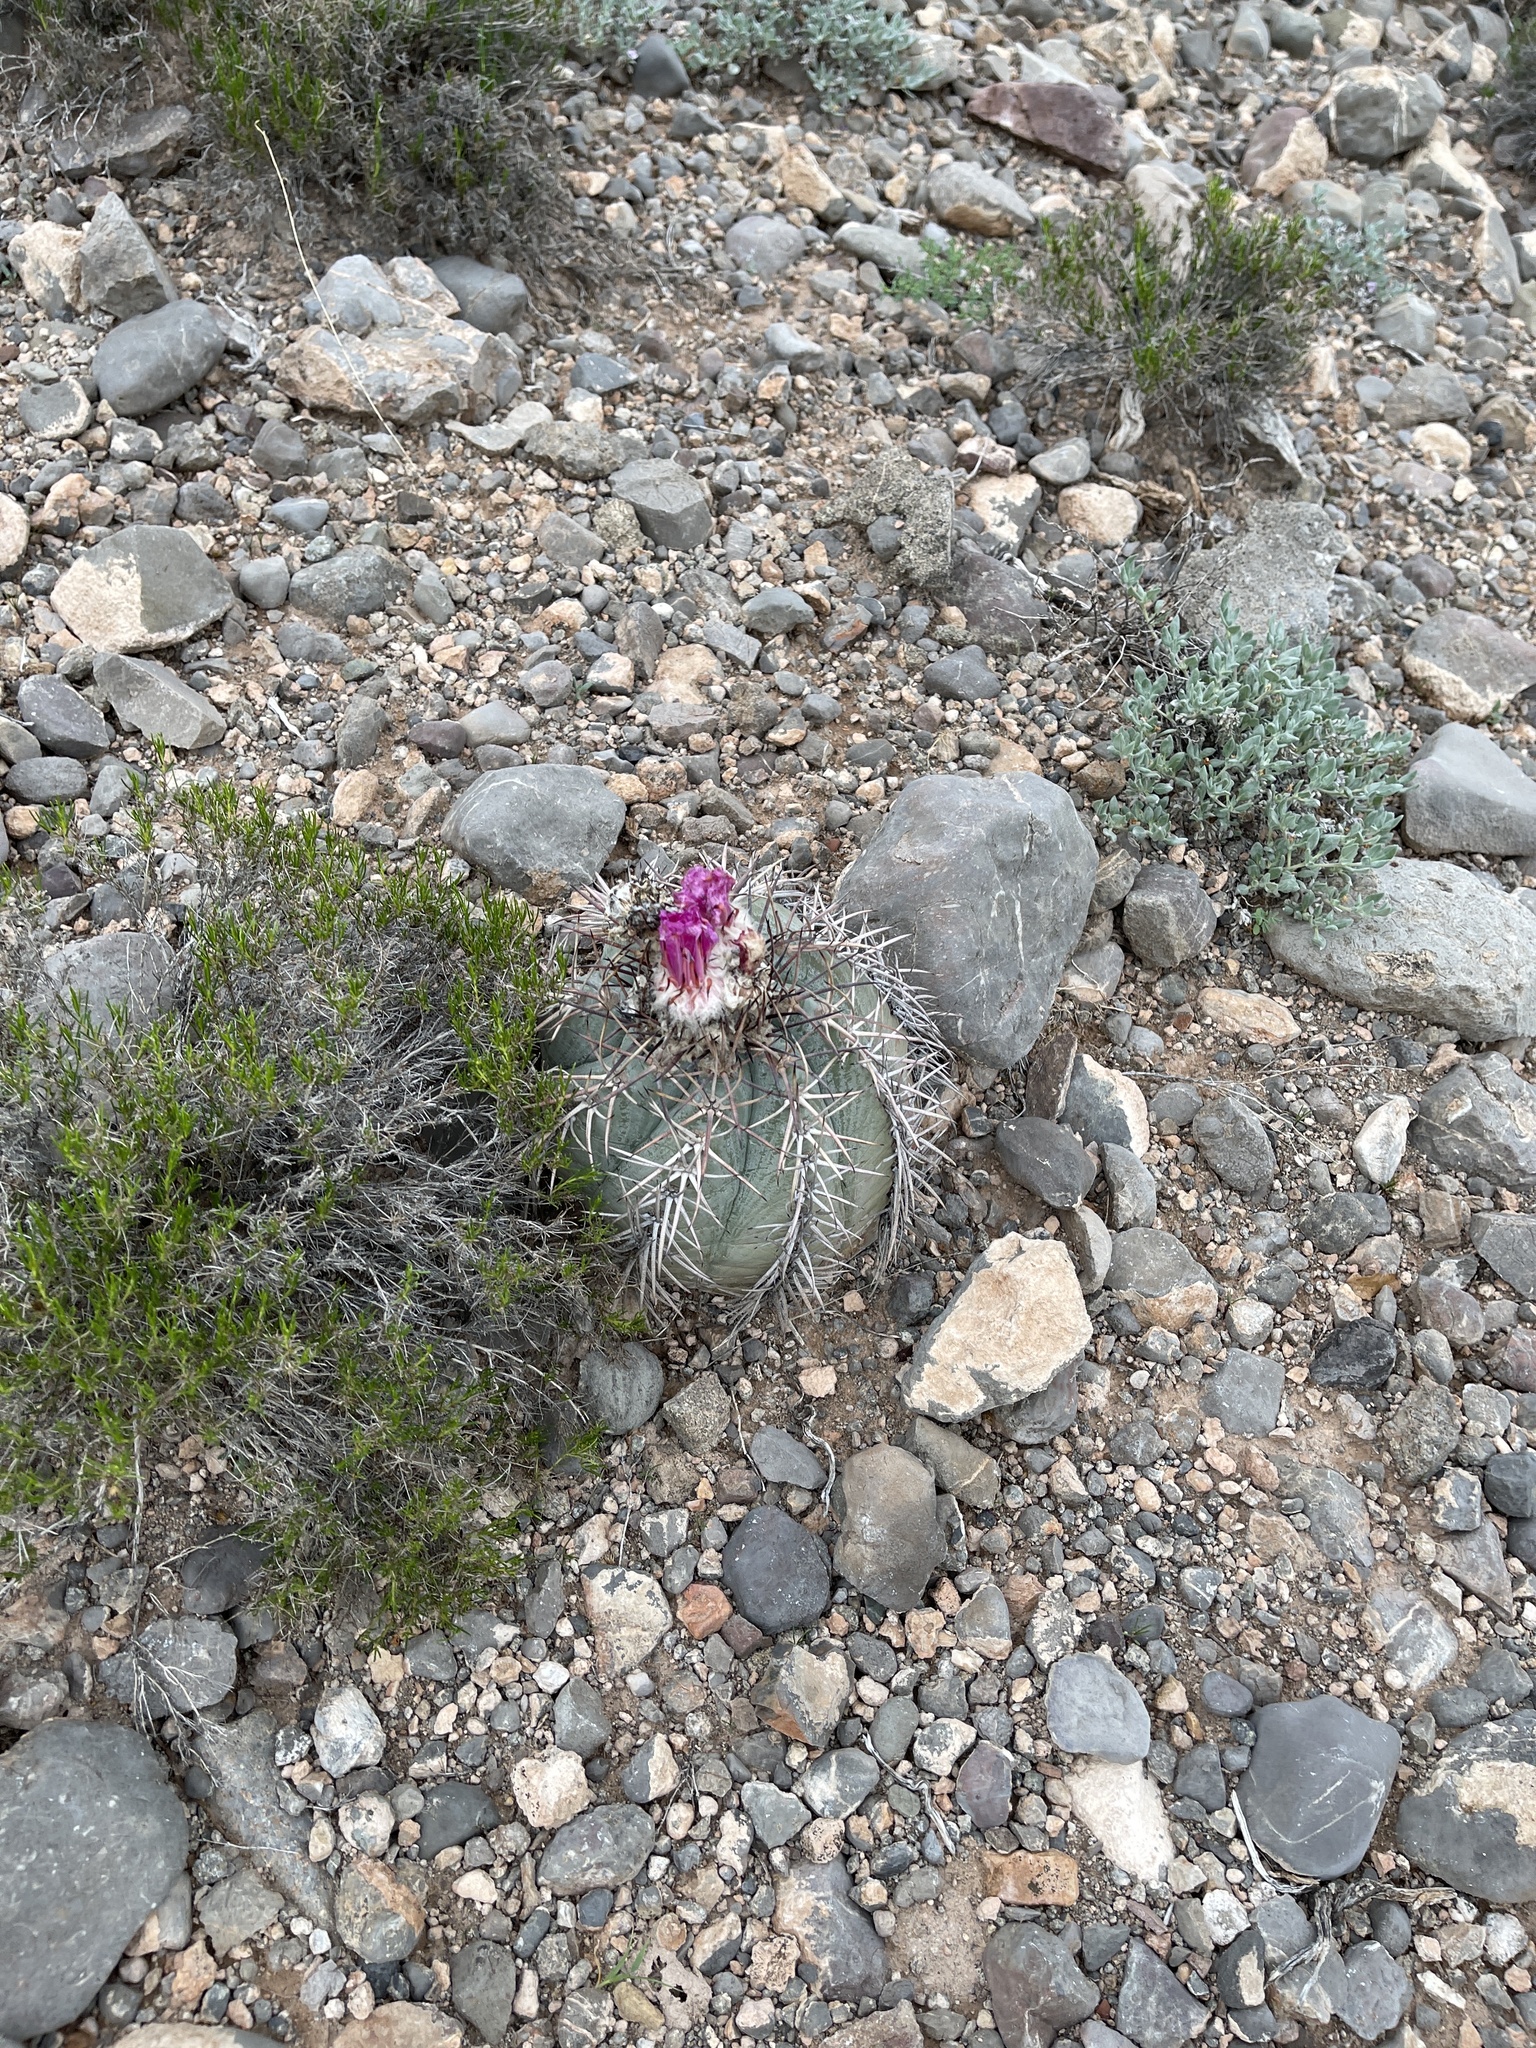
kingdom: Plantae
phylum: Tracheophyta
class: Magnoliopsida
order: Caryophyllales
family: Cactaceae
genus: Echinocactus
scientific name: Echinocactus horizonthalonius
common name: Devilshead
